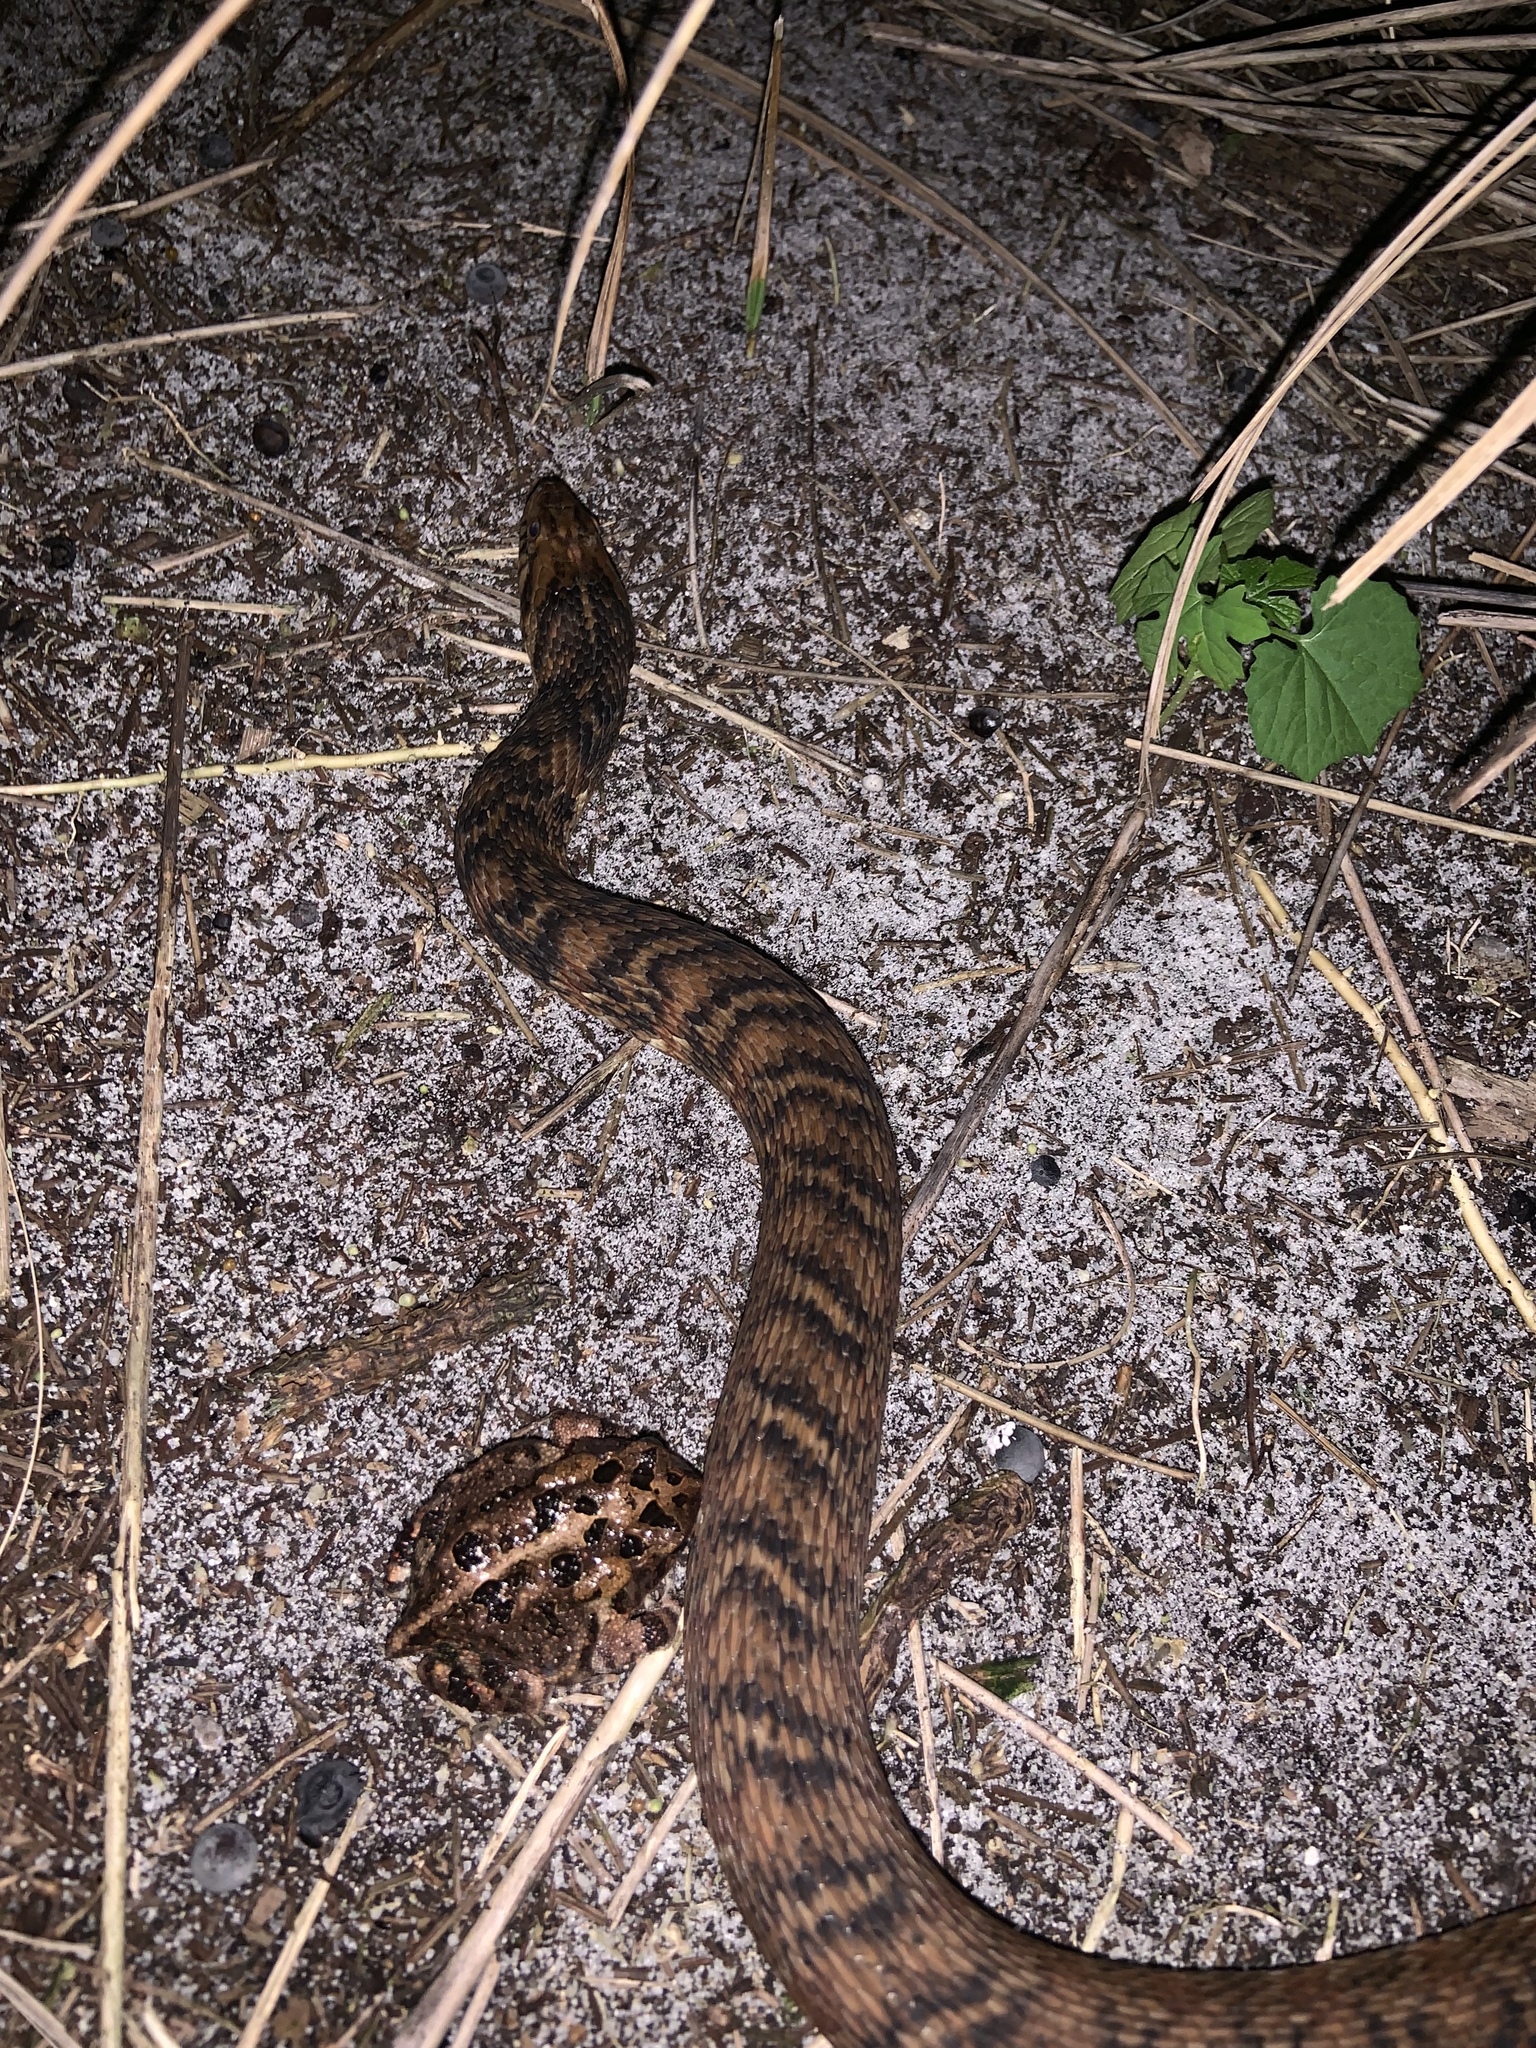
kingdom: Animalia
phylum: Chordata
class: Squamata
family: Colubridae
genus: Nerodia
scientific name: Nerodia fasciata
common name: Southern water snake
